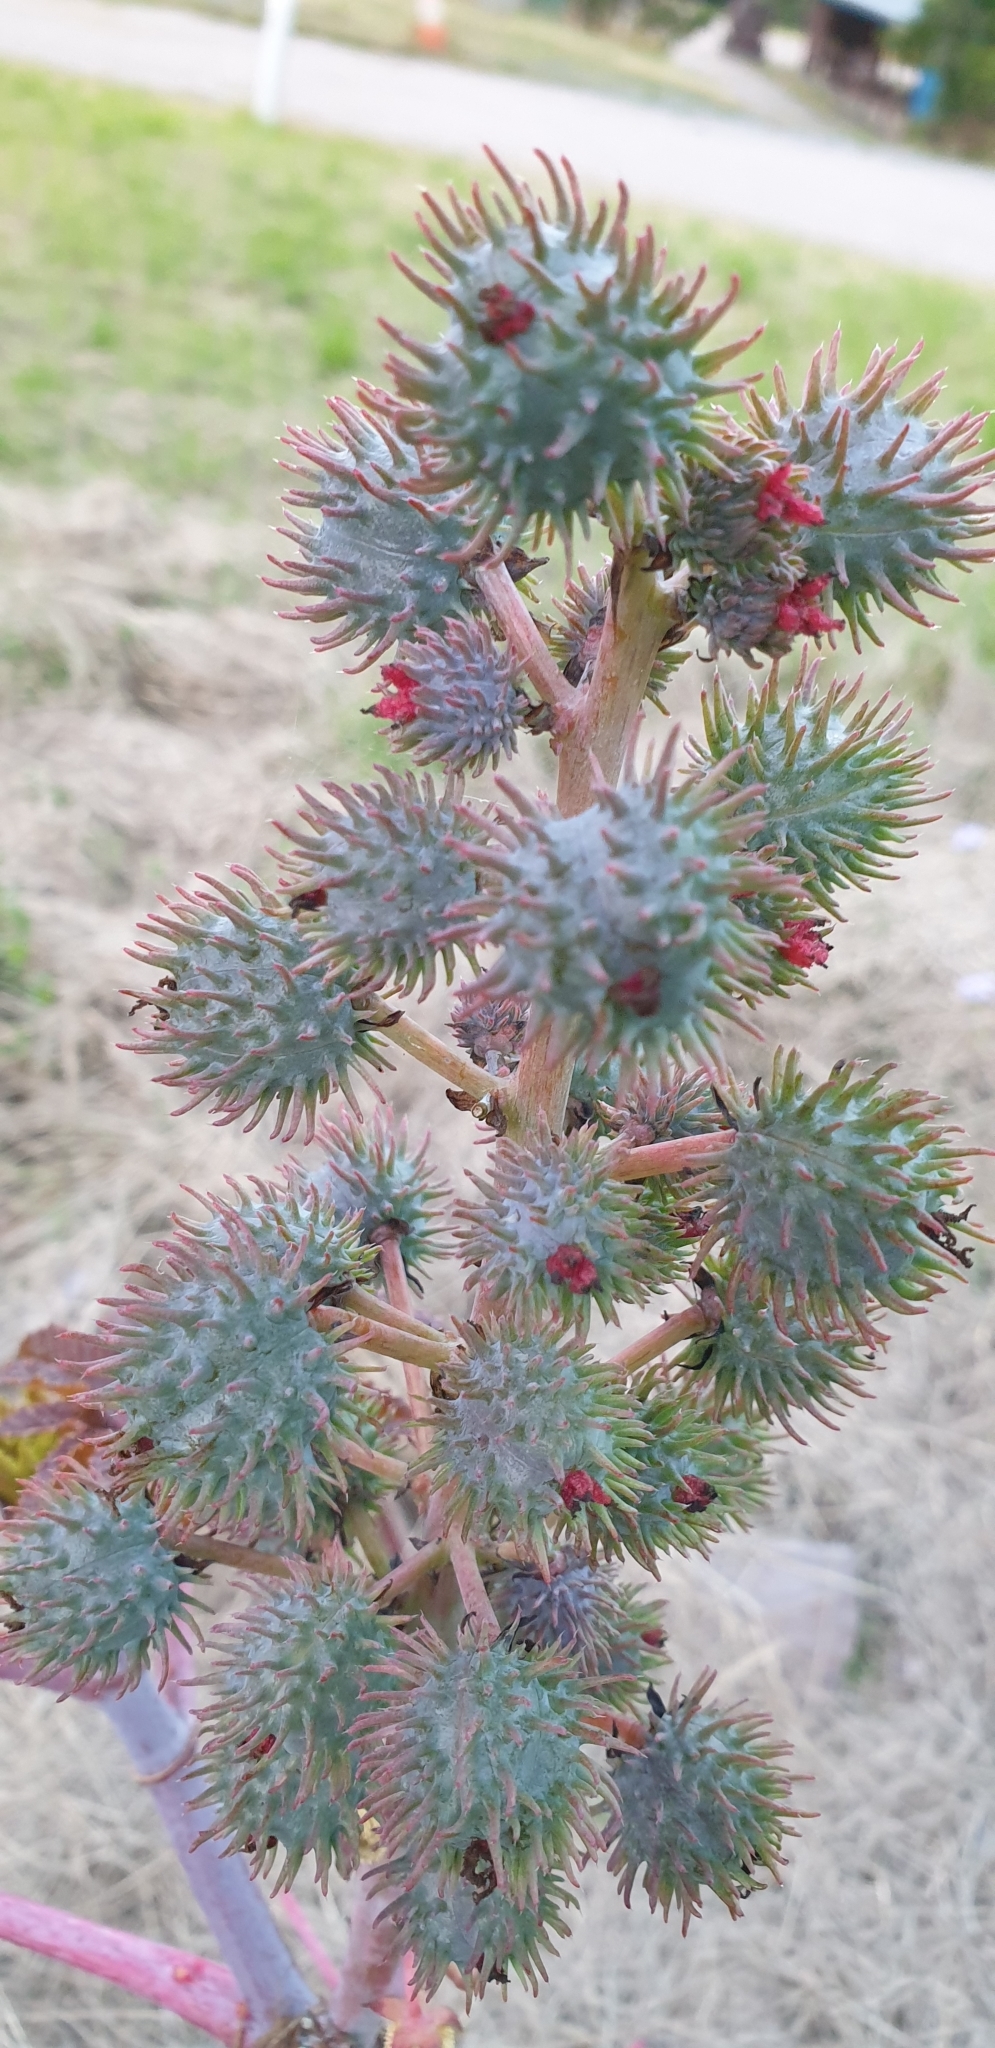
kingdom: Plantae
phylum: Tracheophyta
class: Magnoliopsida
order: Malpighiales
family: Euphorbiaceae
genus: Ricinus
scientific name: Ricinus communis
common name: Castor-oil-plant
